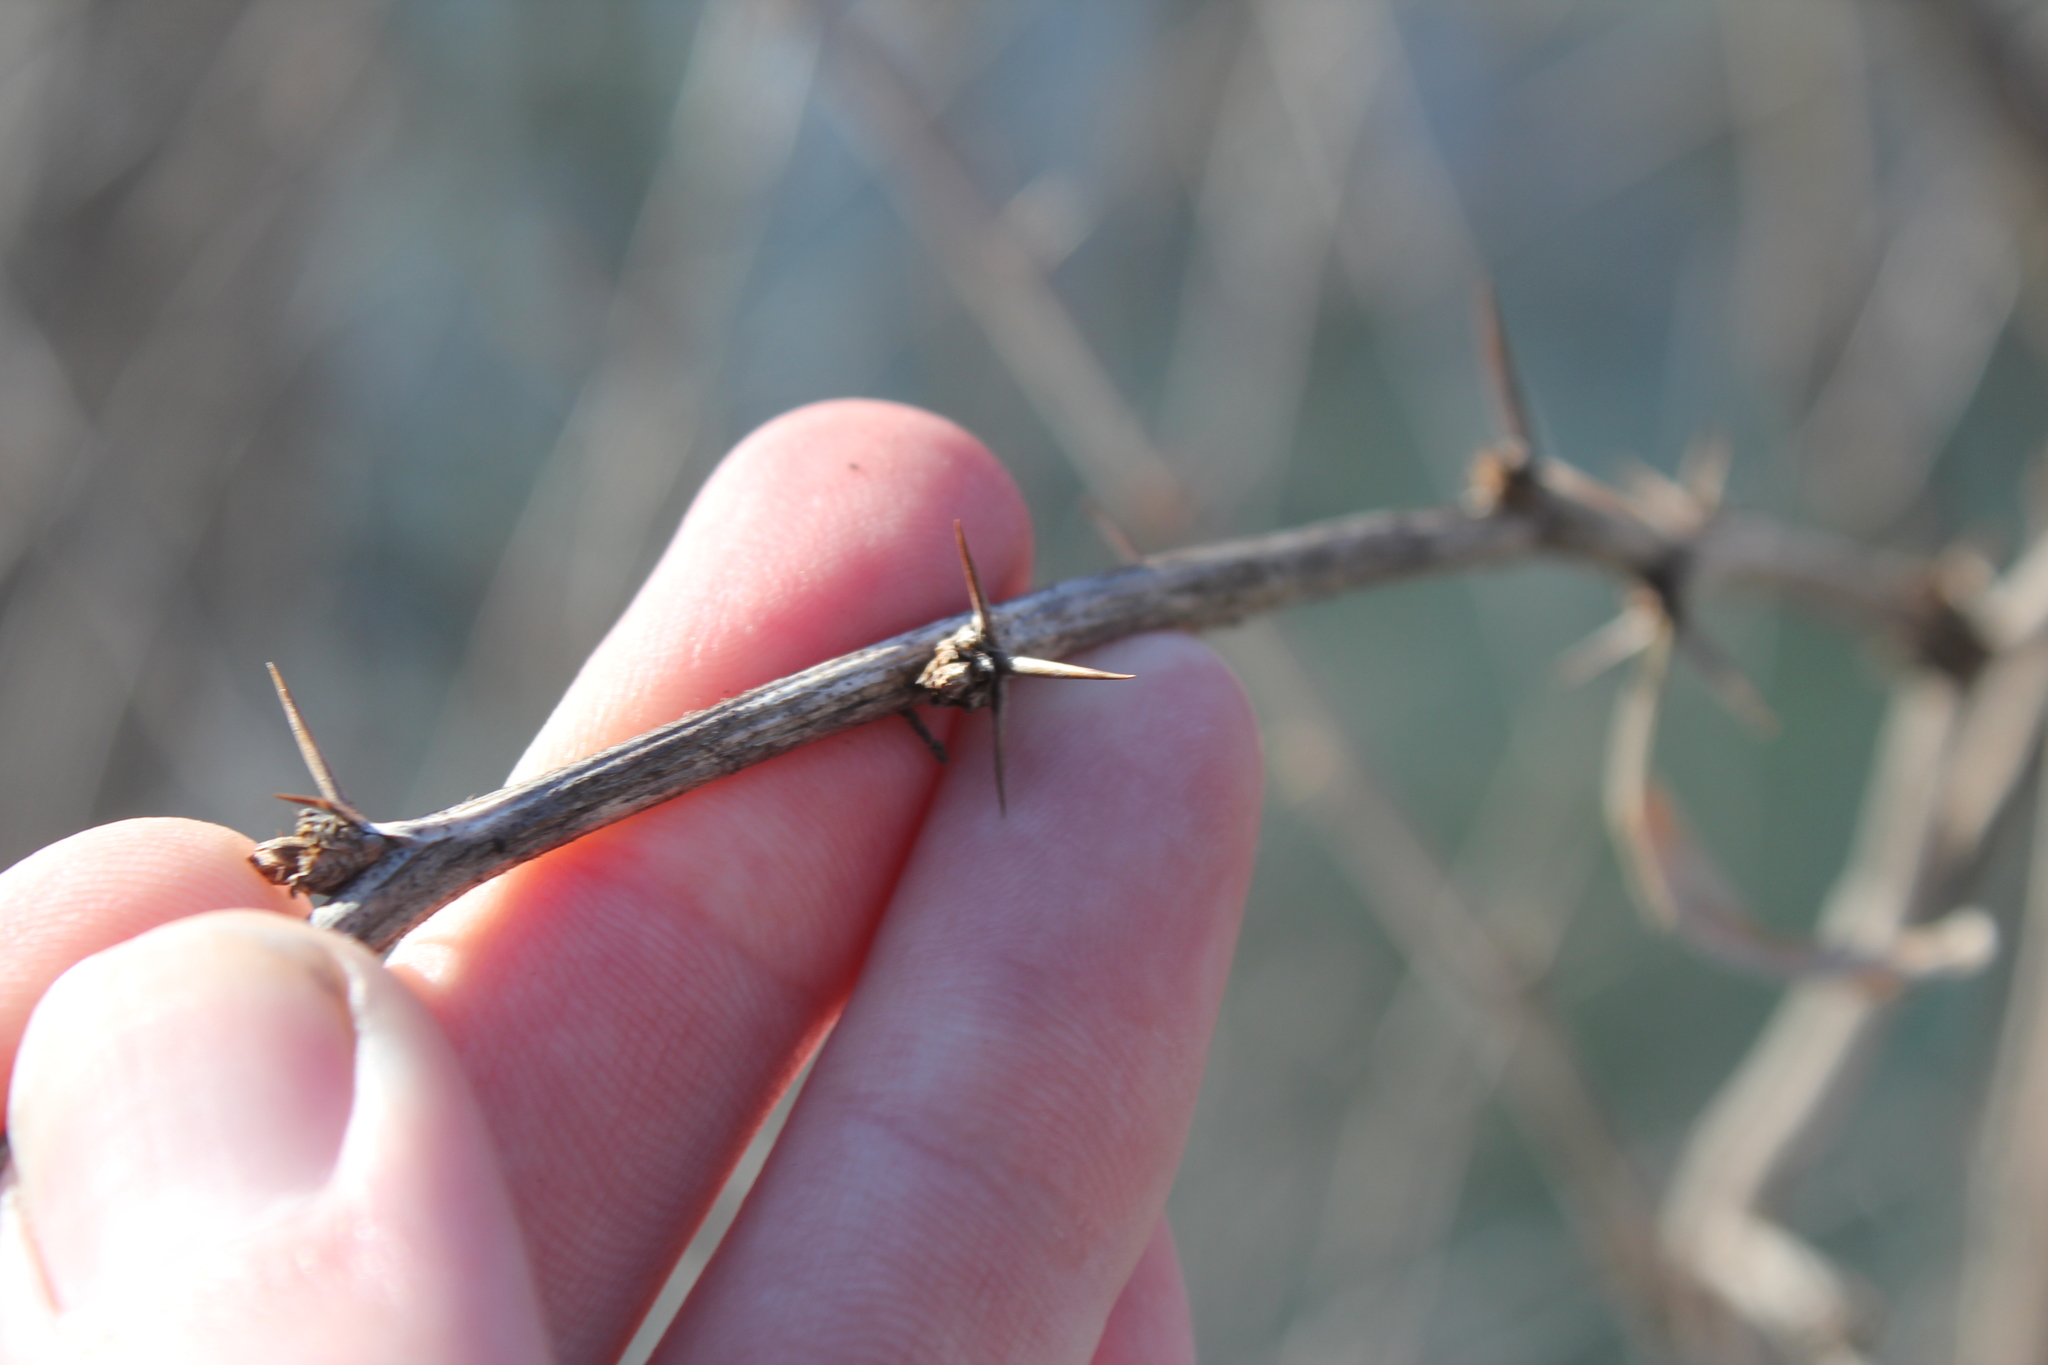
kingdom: Plantae
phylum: Tracheophyta
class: Magnoliopsida
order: Ranunculales
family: Berberidaceae
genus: Berberis
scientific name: Berberis vulgaris
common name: Barberry
